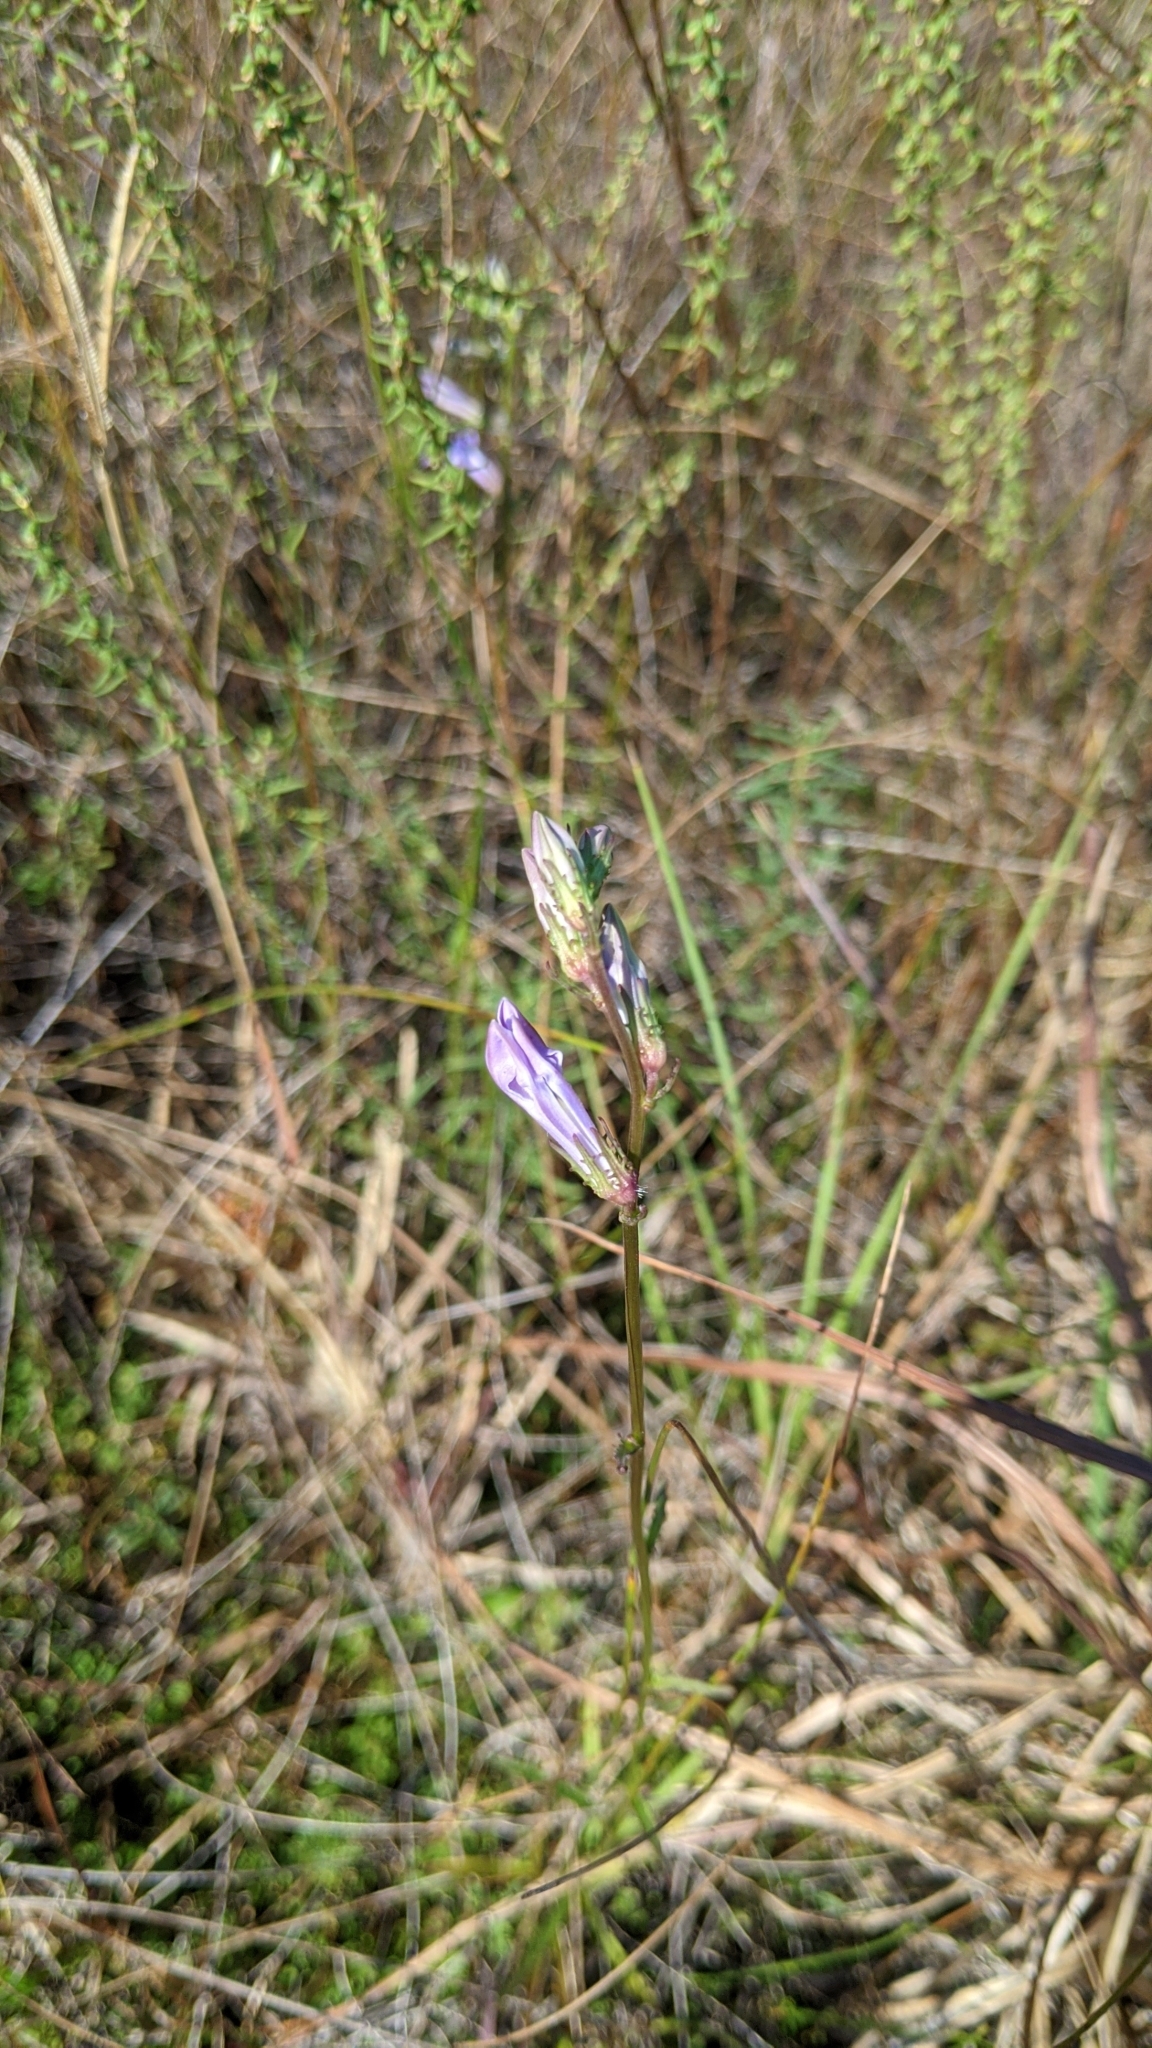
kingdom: Plantae
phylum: Tracheophyta
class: Magnoliopsida
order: Asterales
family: Campanulaceae
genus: Lobelia
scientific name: Lobelia glandulosa
